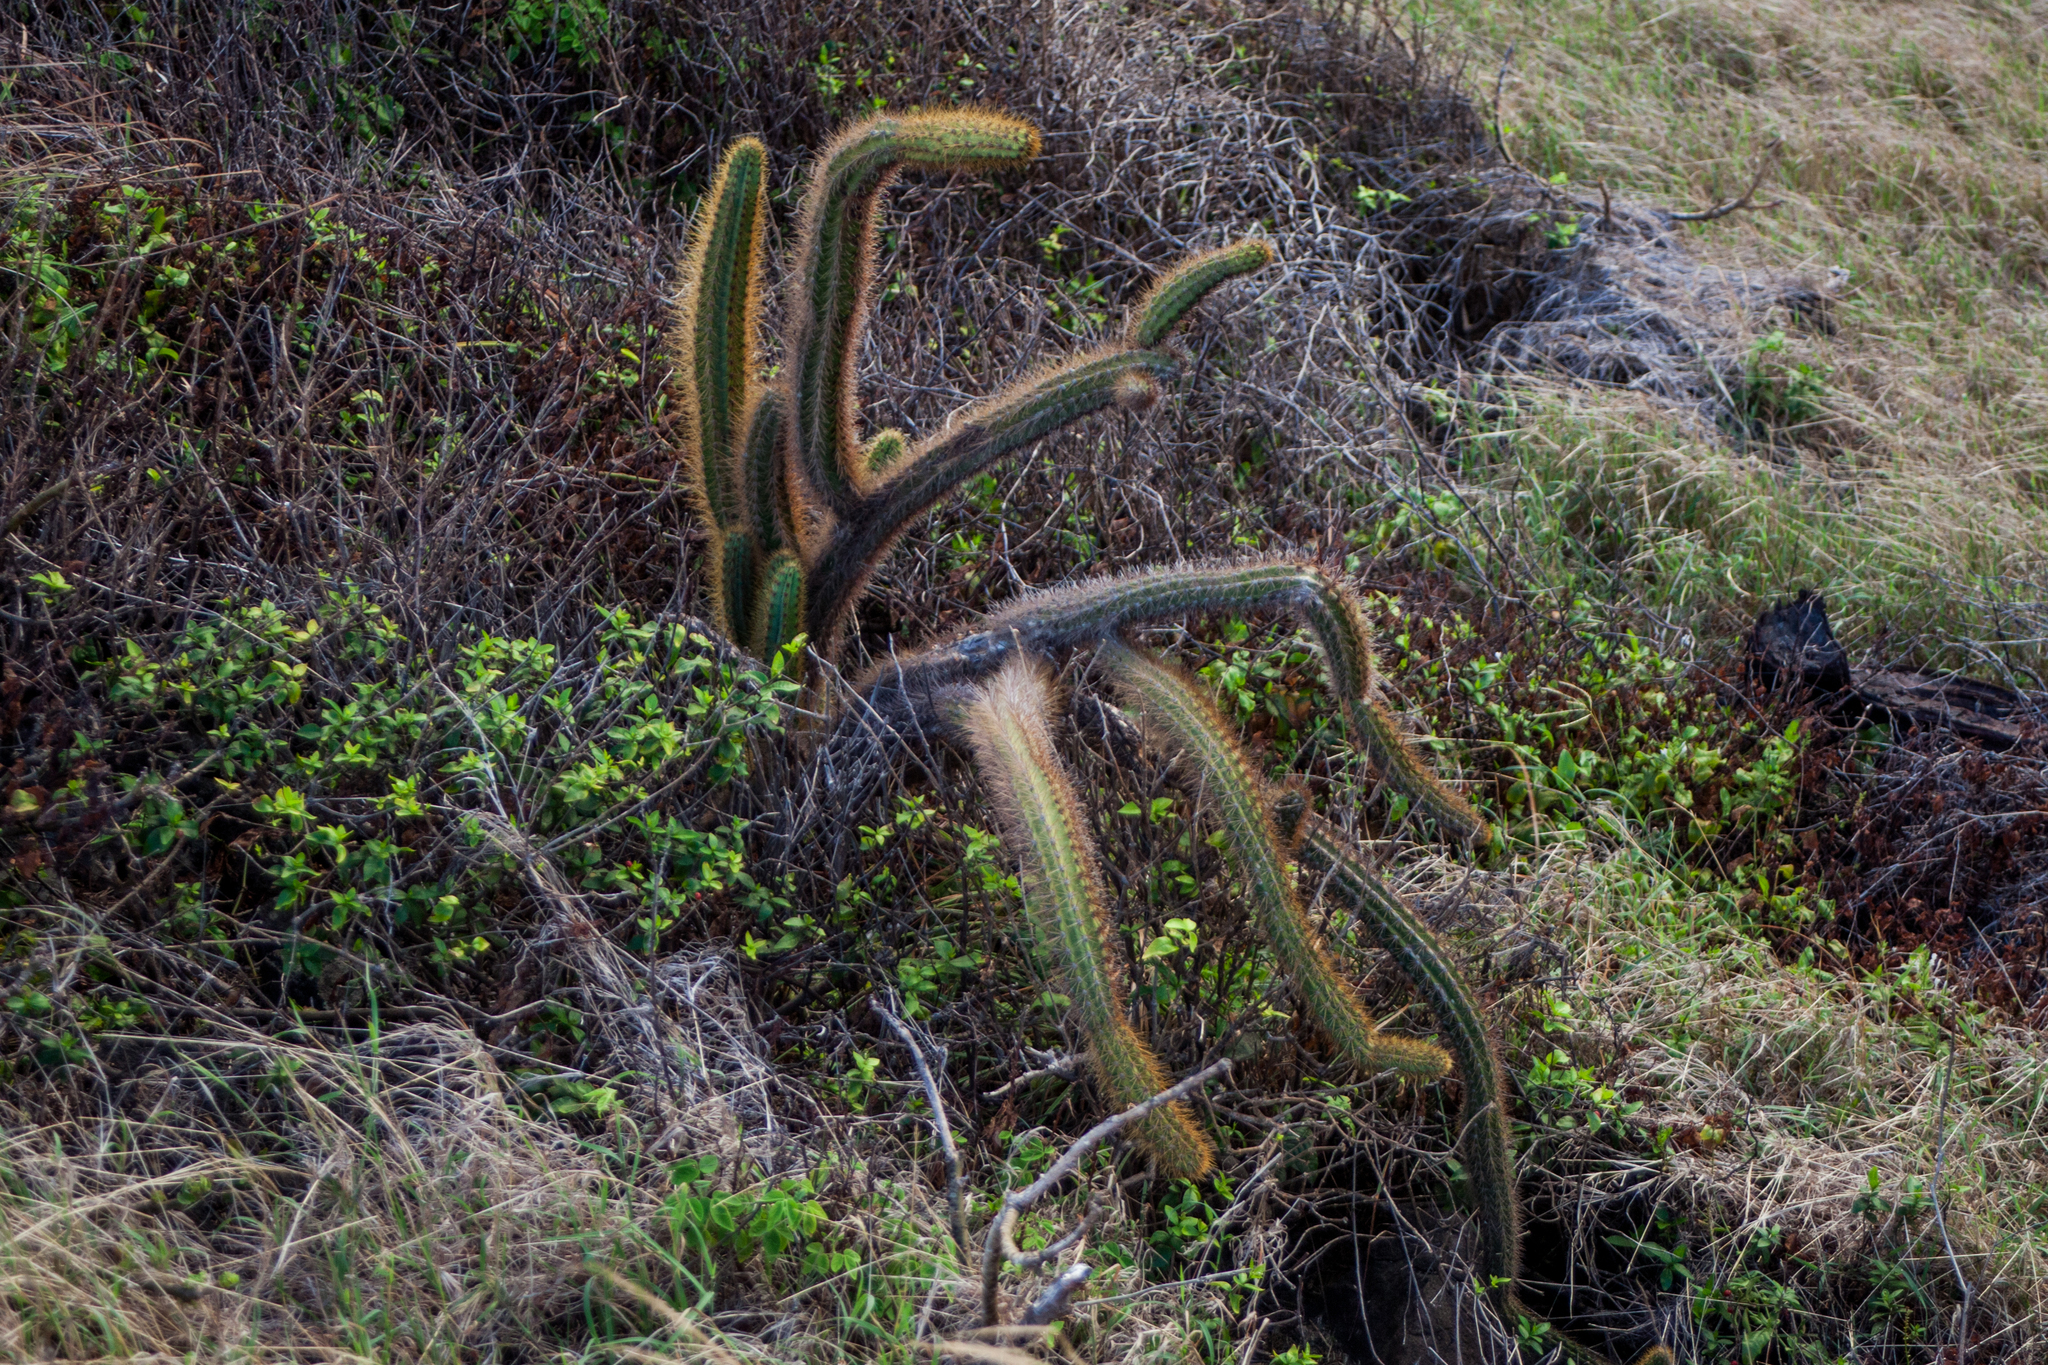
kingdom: Plantae
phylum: Tracheophyta
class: Magnoliopsida
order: Caryophyllales
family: Cactaceae
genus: Cereus
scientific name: Cereus insularis
